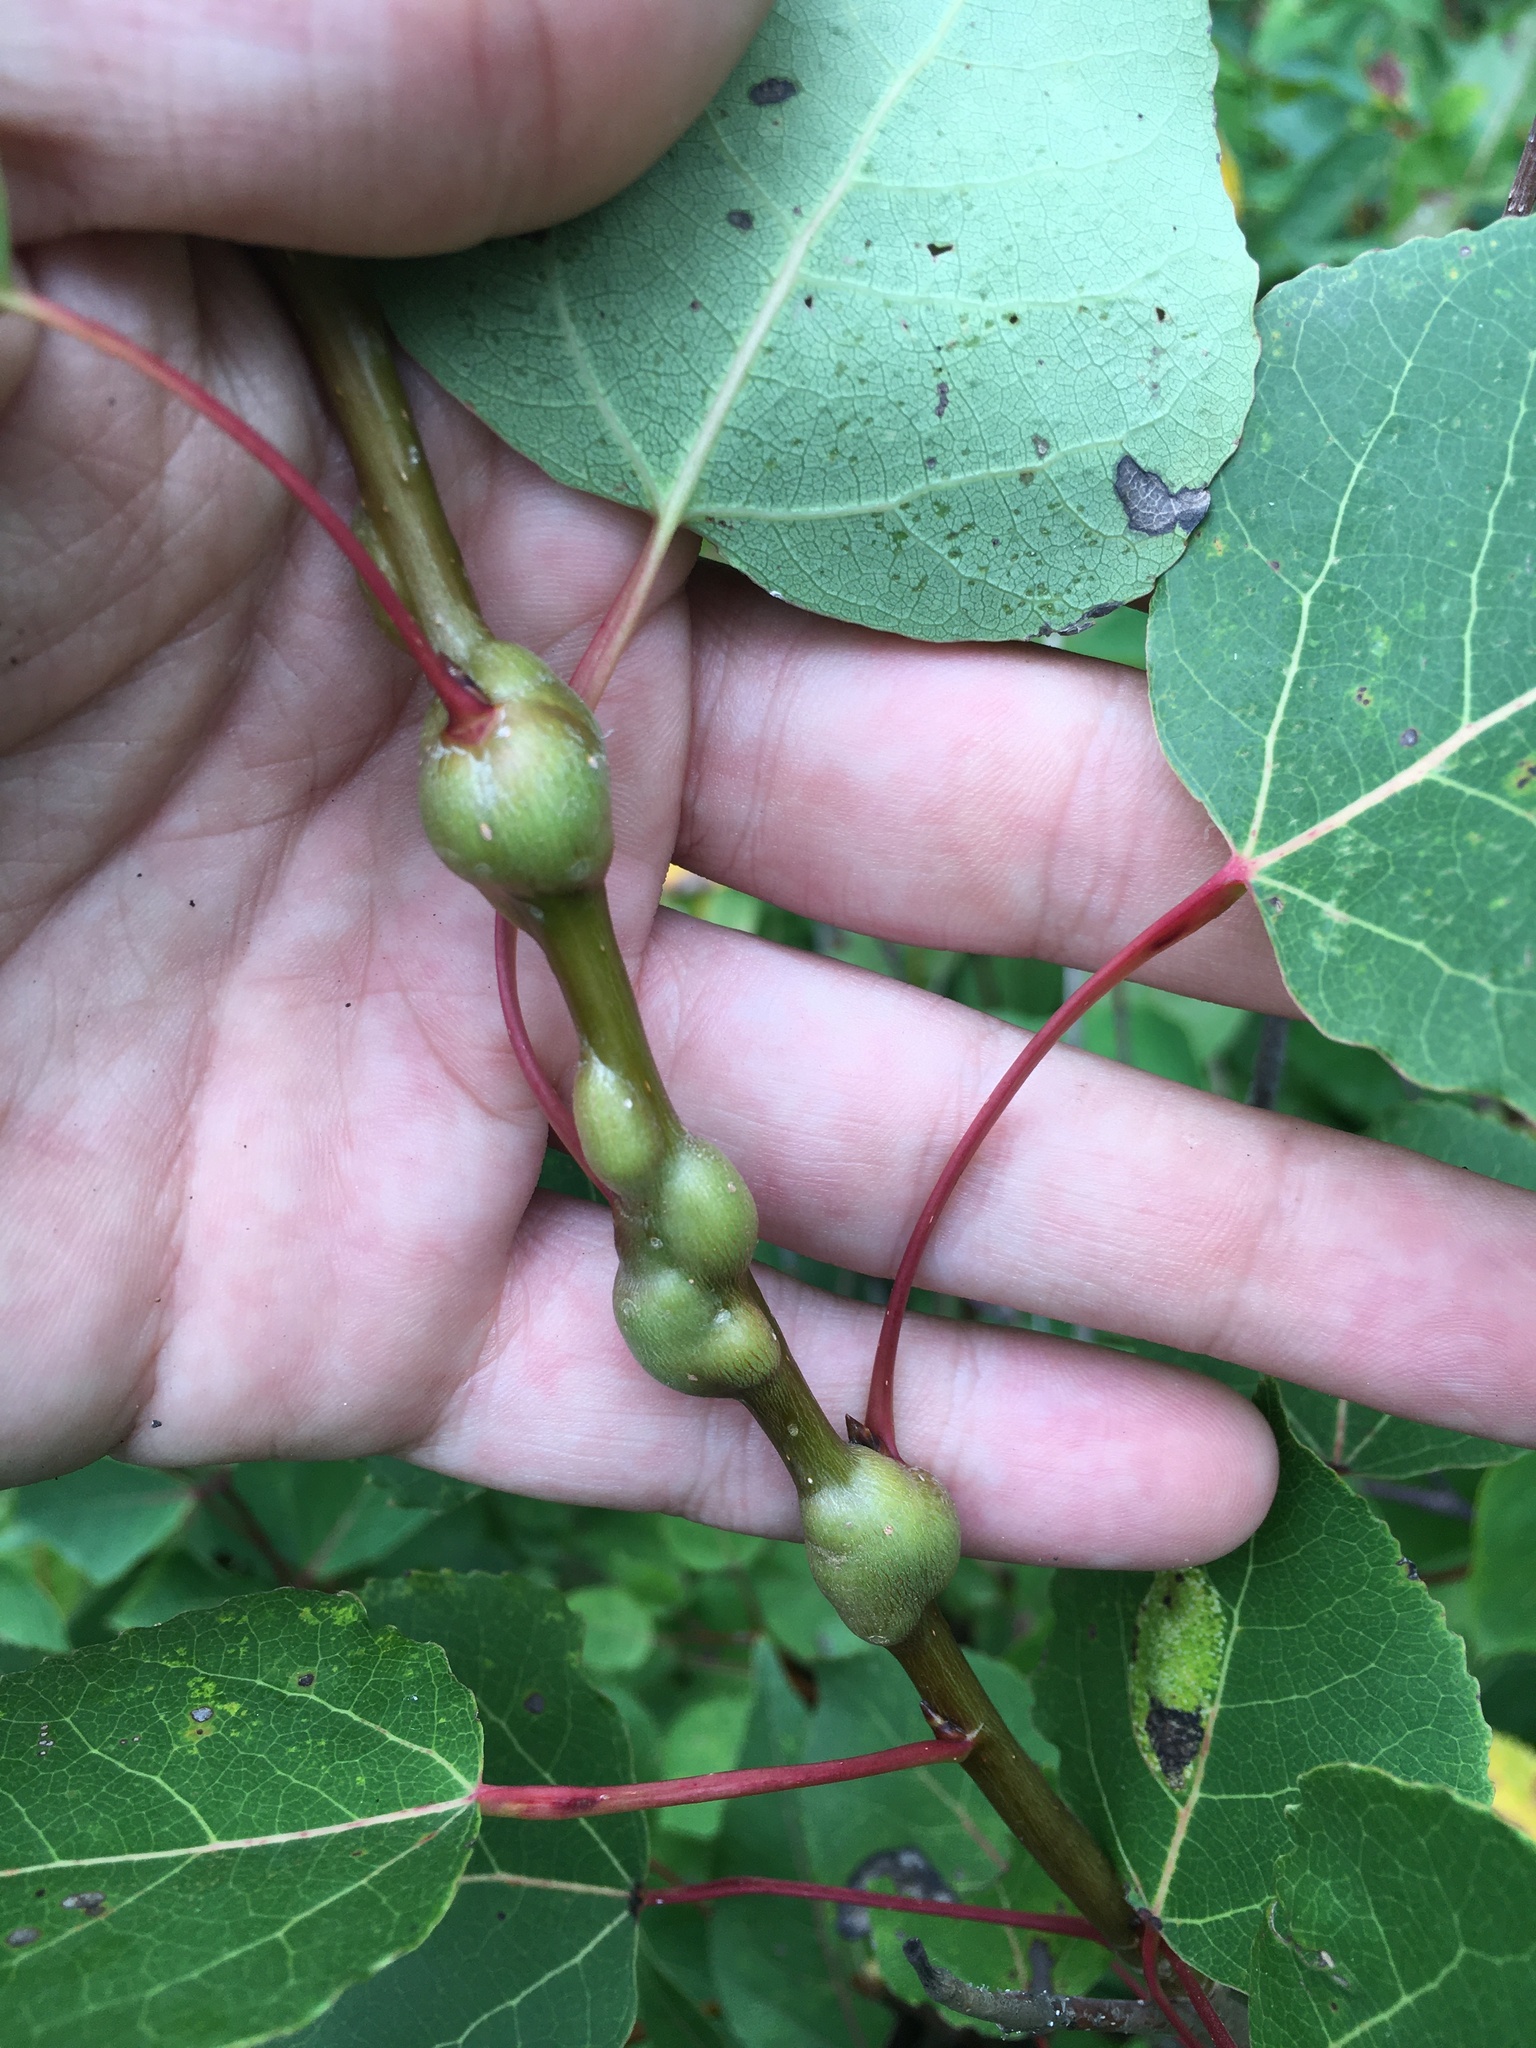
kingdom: Animalia
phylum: Arthropoda
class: Insecta
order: Diptera
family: Agromyzidae
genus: Euhexomyza
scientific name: Euhexomyza schineri
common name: Poplar twiggall fly
